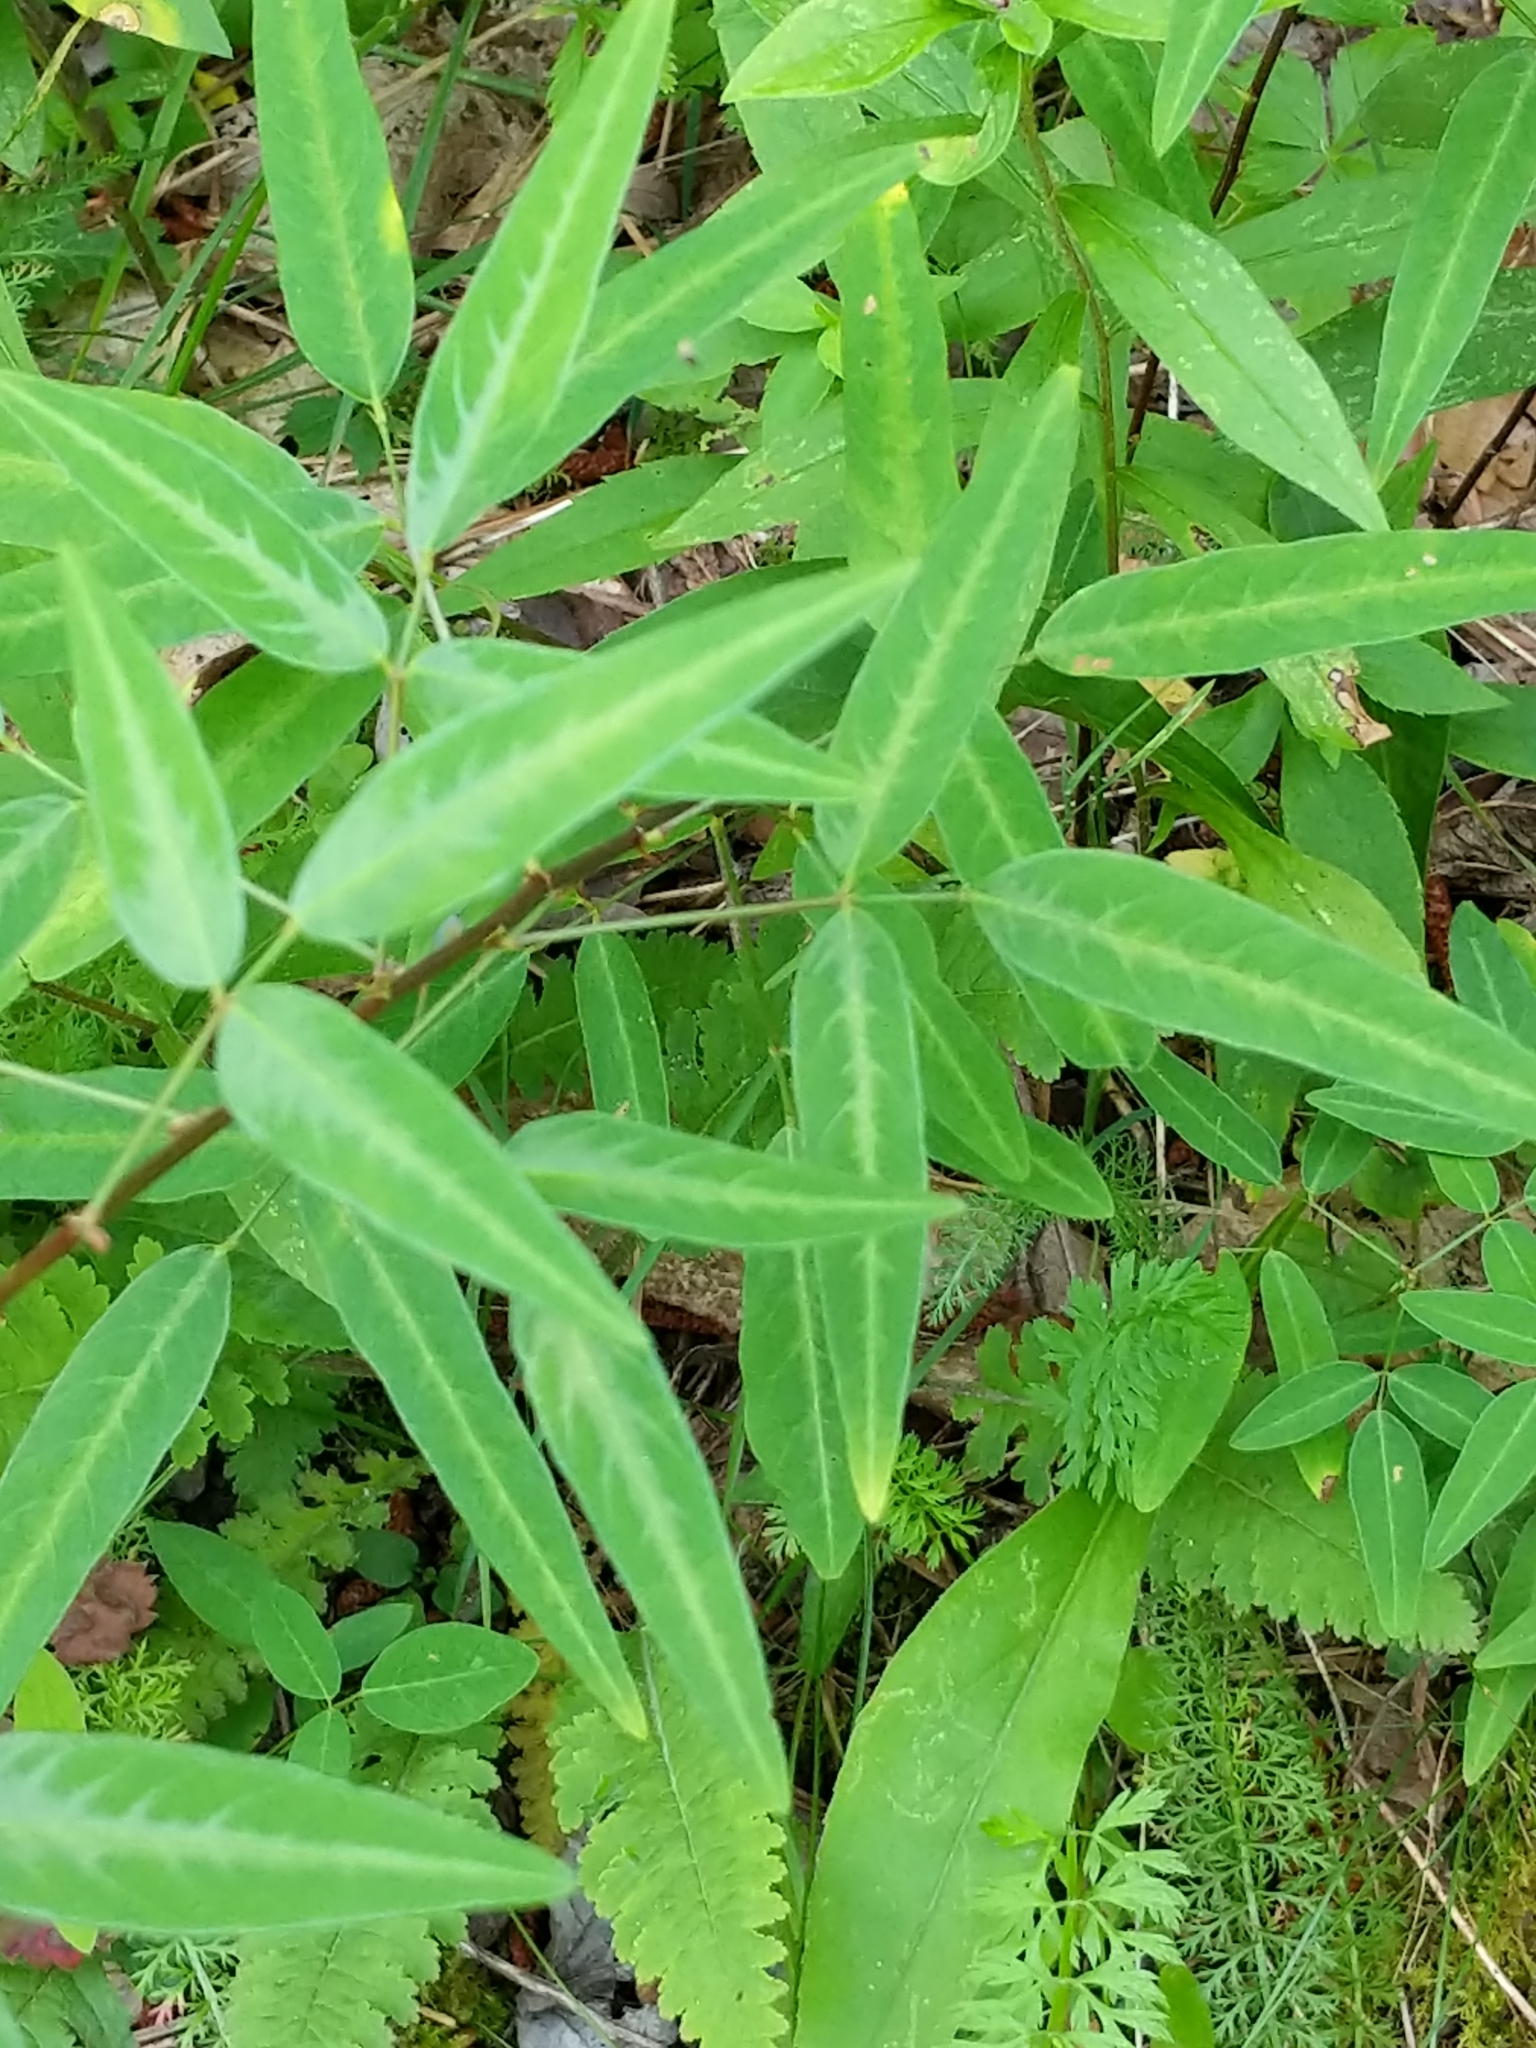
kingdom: Plantae
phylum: Tracheophyta
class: Magnoliopsida
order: Fabales
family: Fabaceae
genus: Desmodium
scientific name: Desmodium paniculatum
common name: Panicled tick-clover
